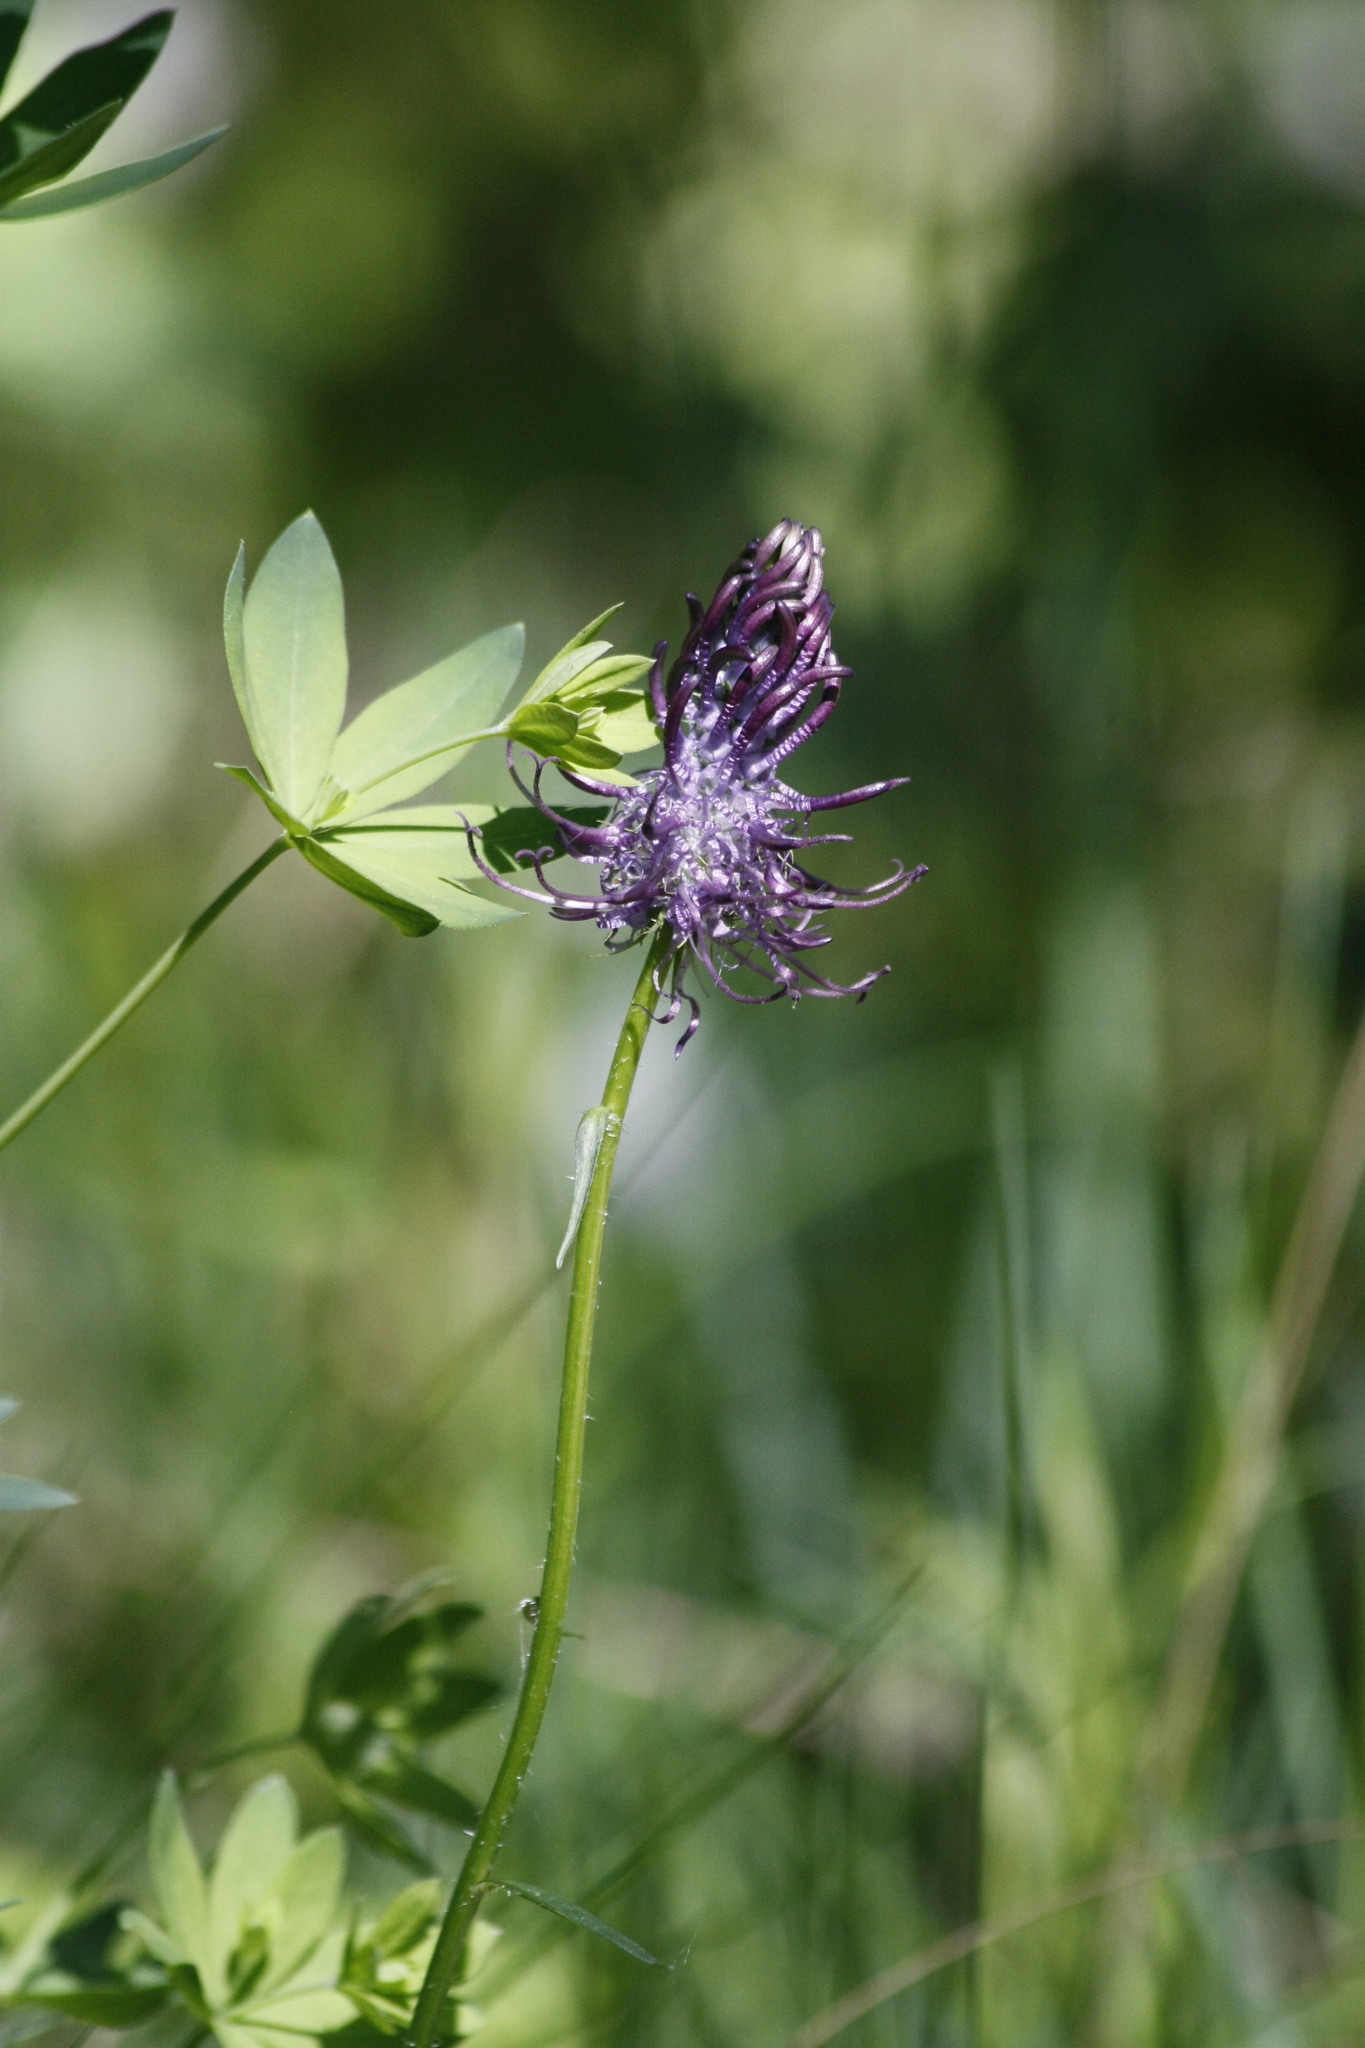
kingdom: Plantae
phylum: Tracheophyta
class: Magnoliopsida
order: Asterales
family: Campanulaceae
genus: Phyteuma
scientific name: Phyteuma nigrum
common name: Black rampion
